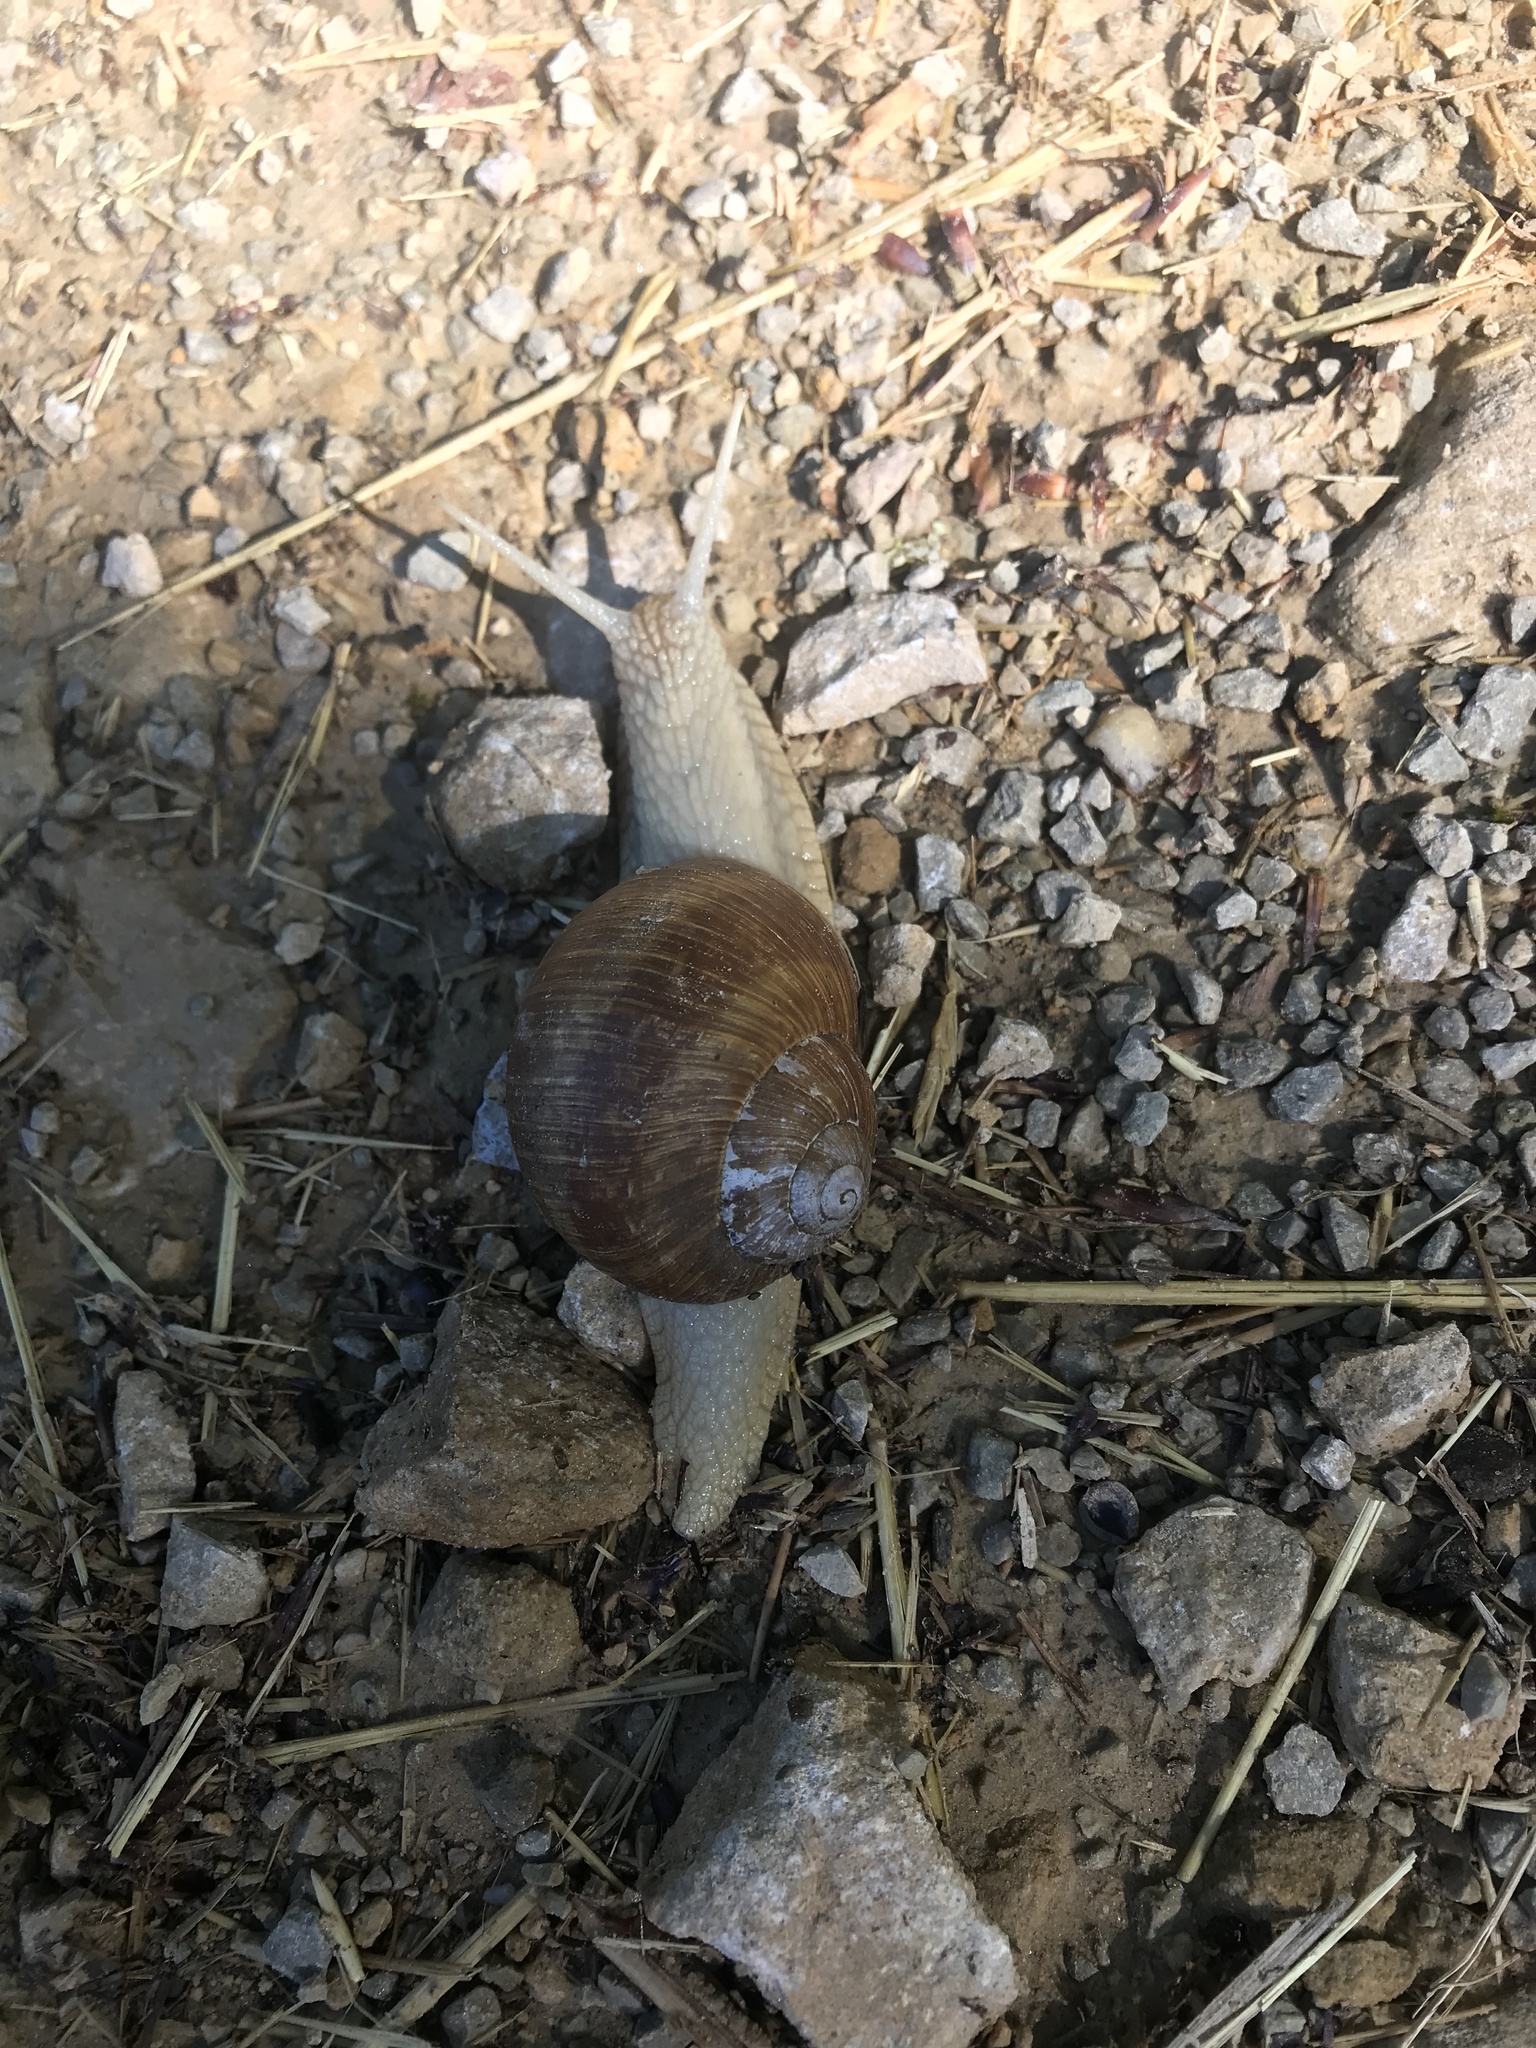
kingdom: Animalia
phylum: Mollusca
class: Gastropoda
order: Stylommatophora
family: Helicidae
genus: Helix
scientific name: Helix pomatia
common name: Roman snail
